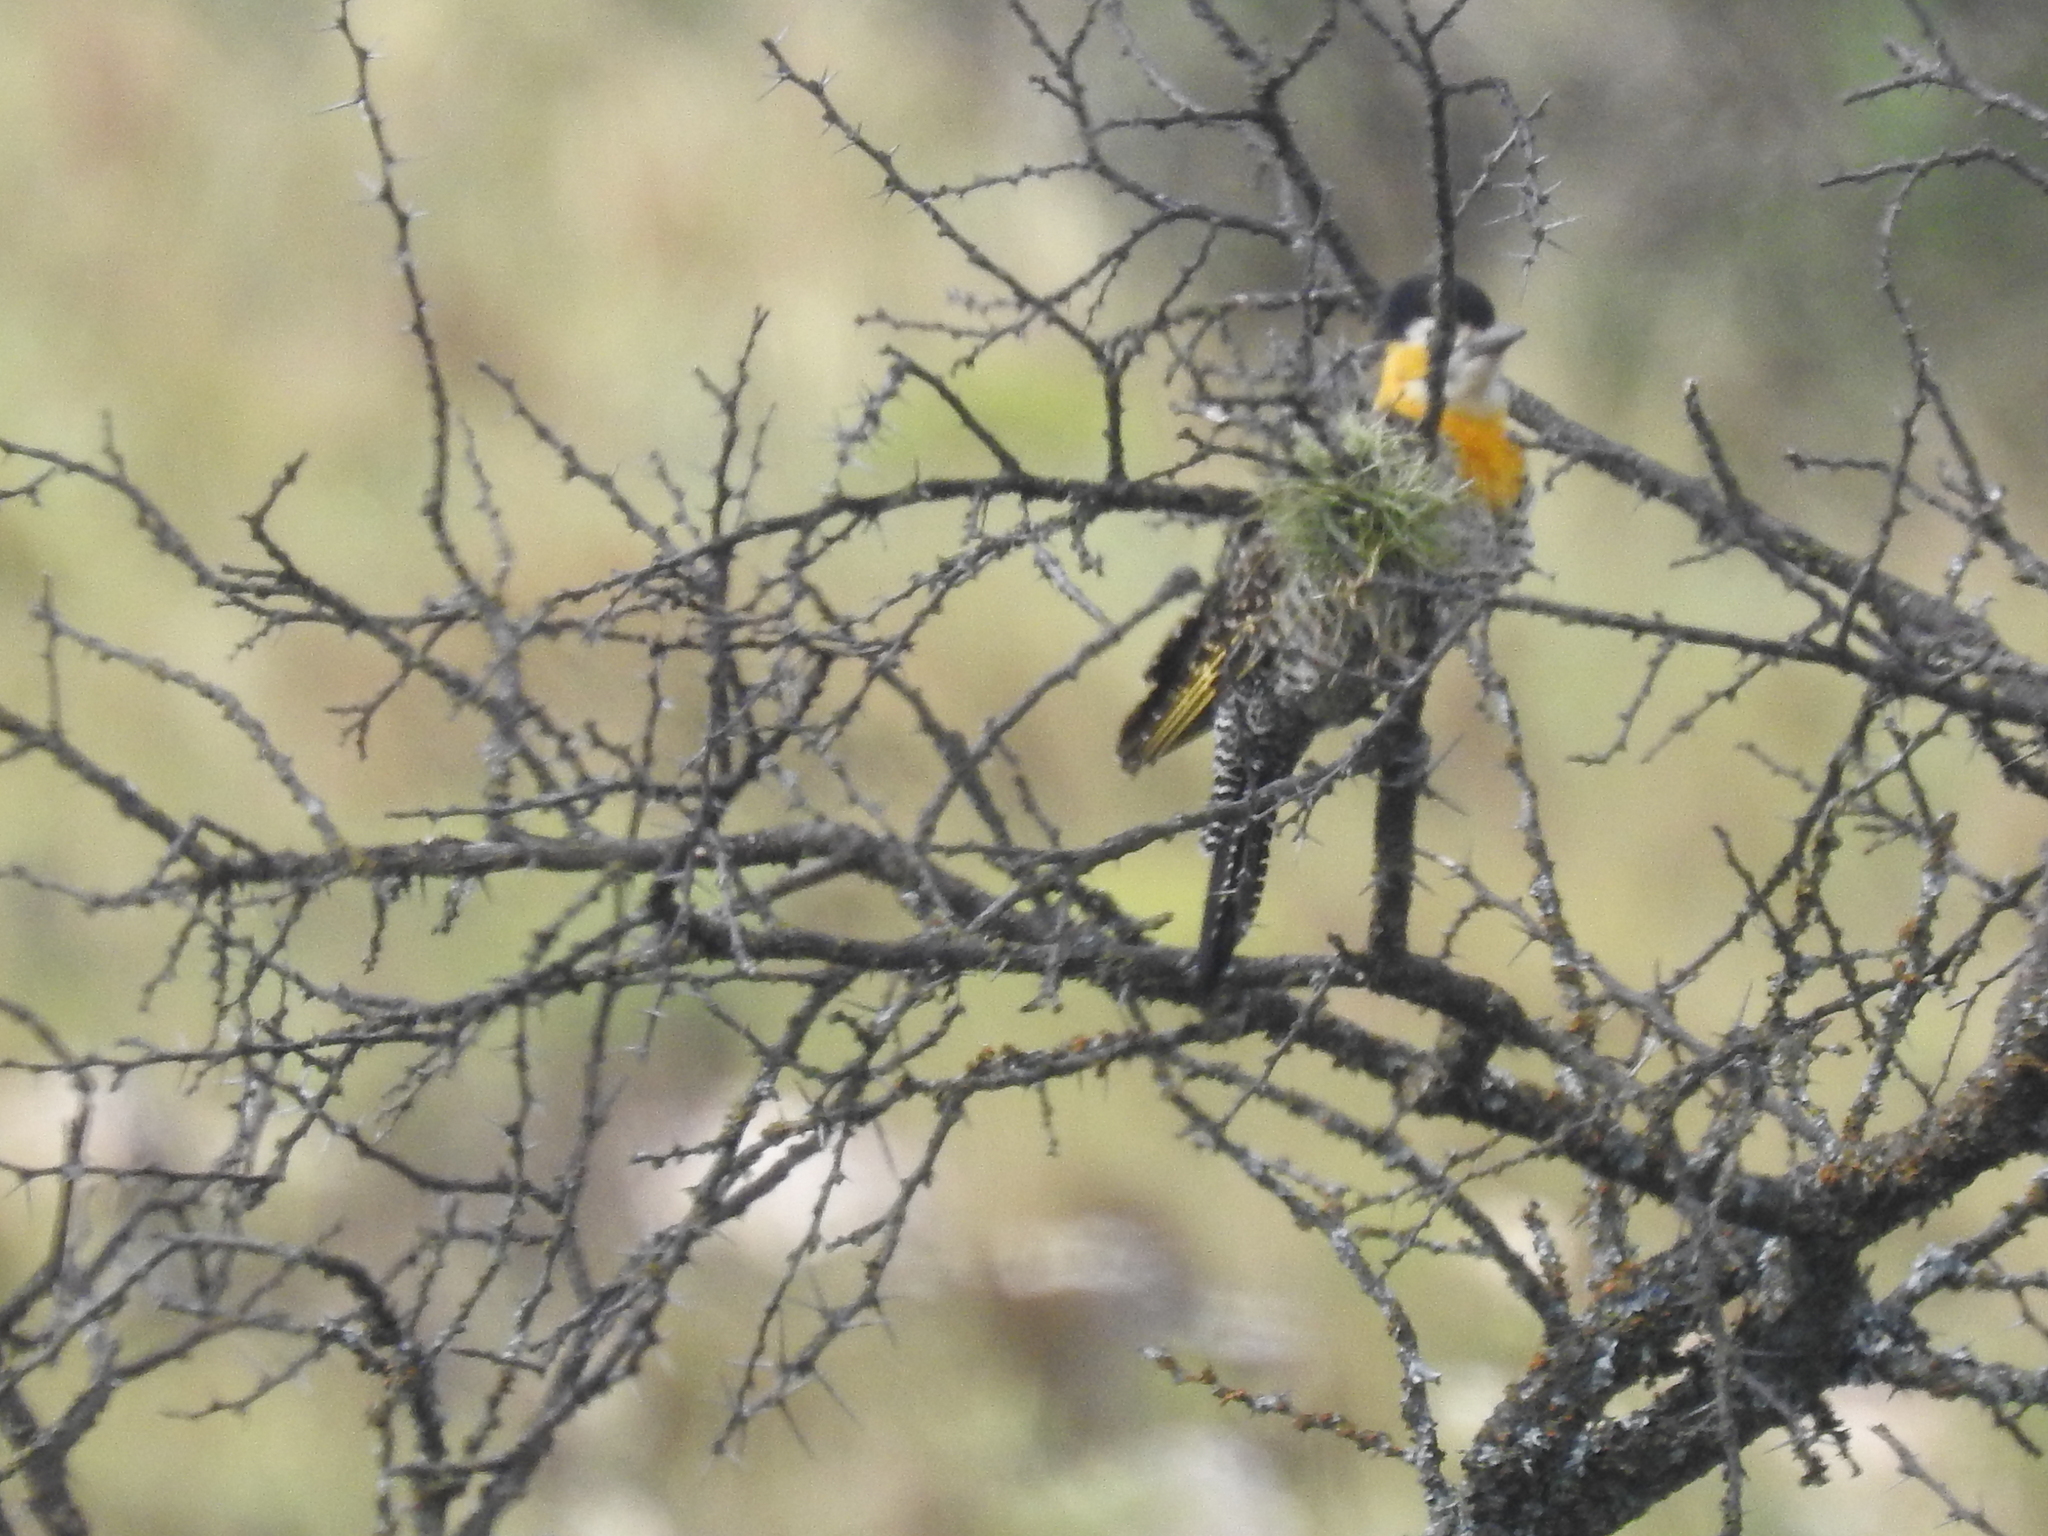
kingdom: Animalia
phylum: Chordata
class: Aves
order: Piciformes
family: Picidae
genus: Colaptes
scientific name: Colaptes campestris
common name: Campo flicker
